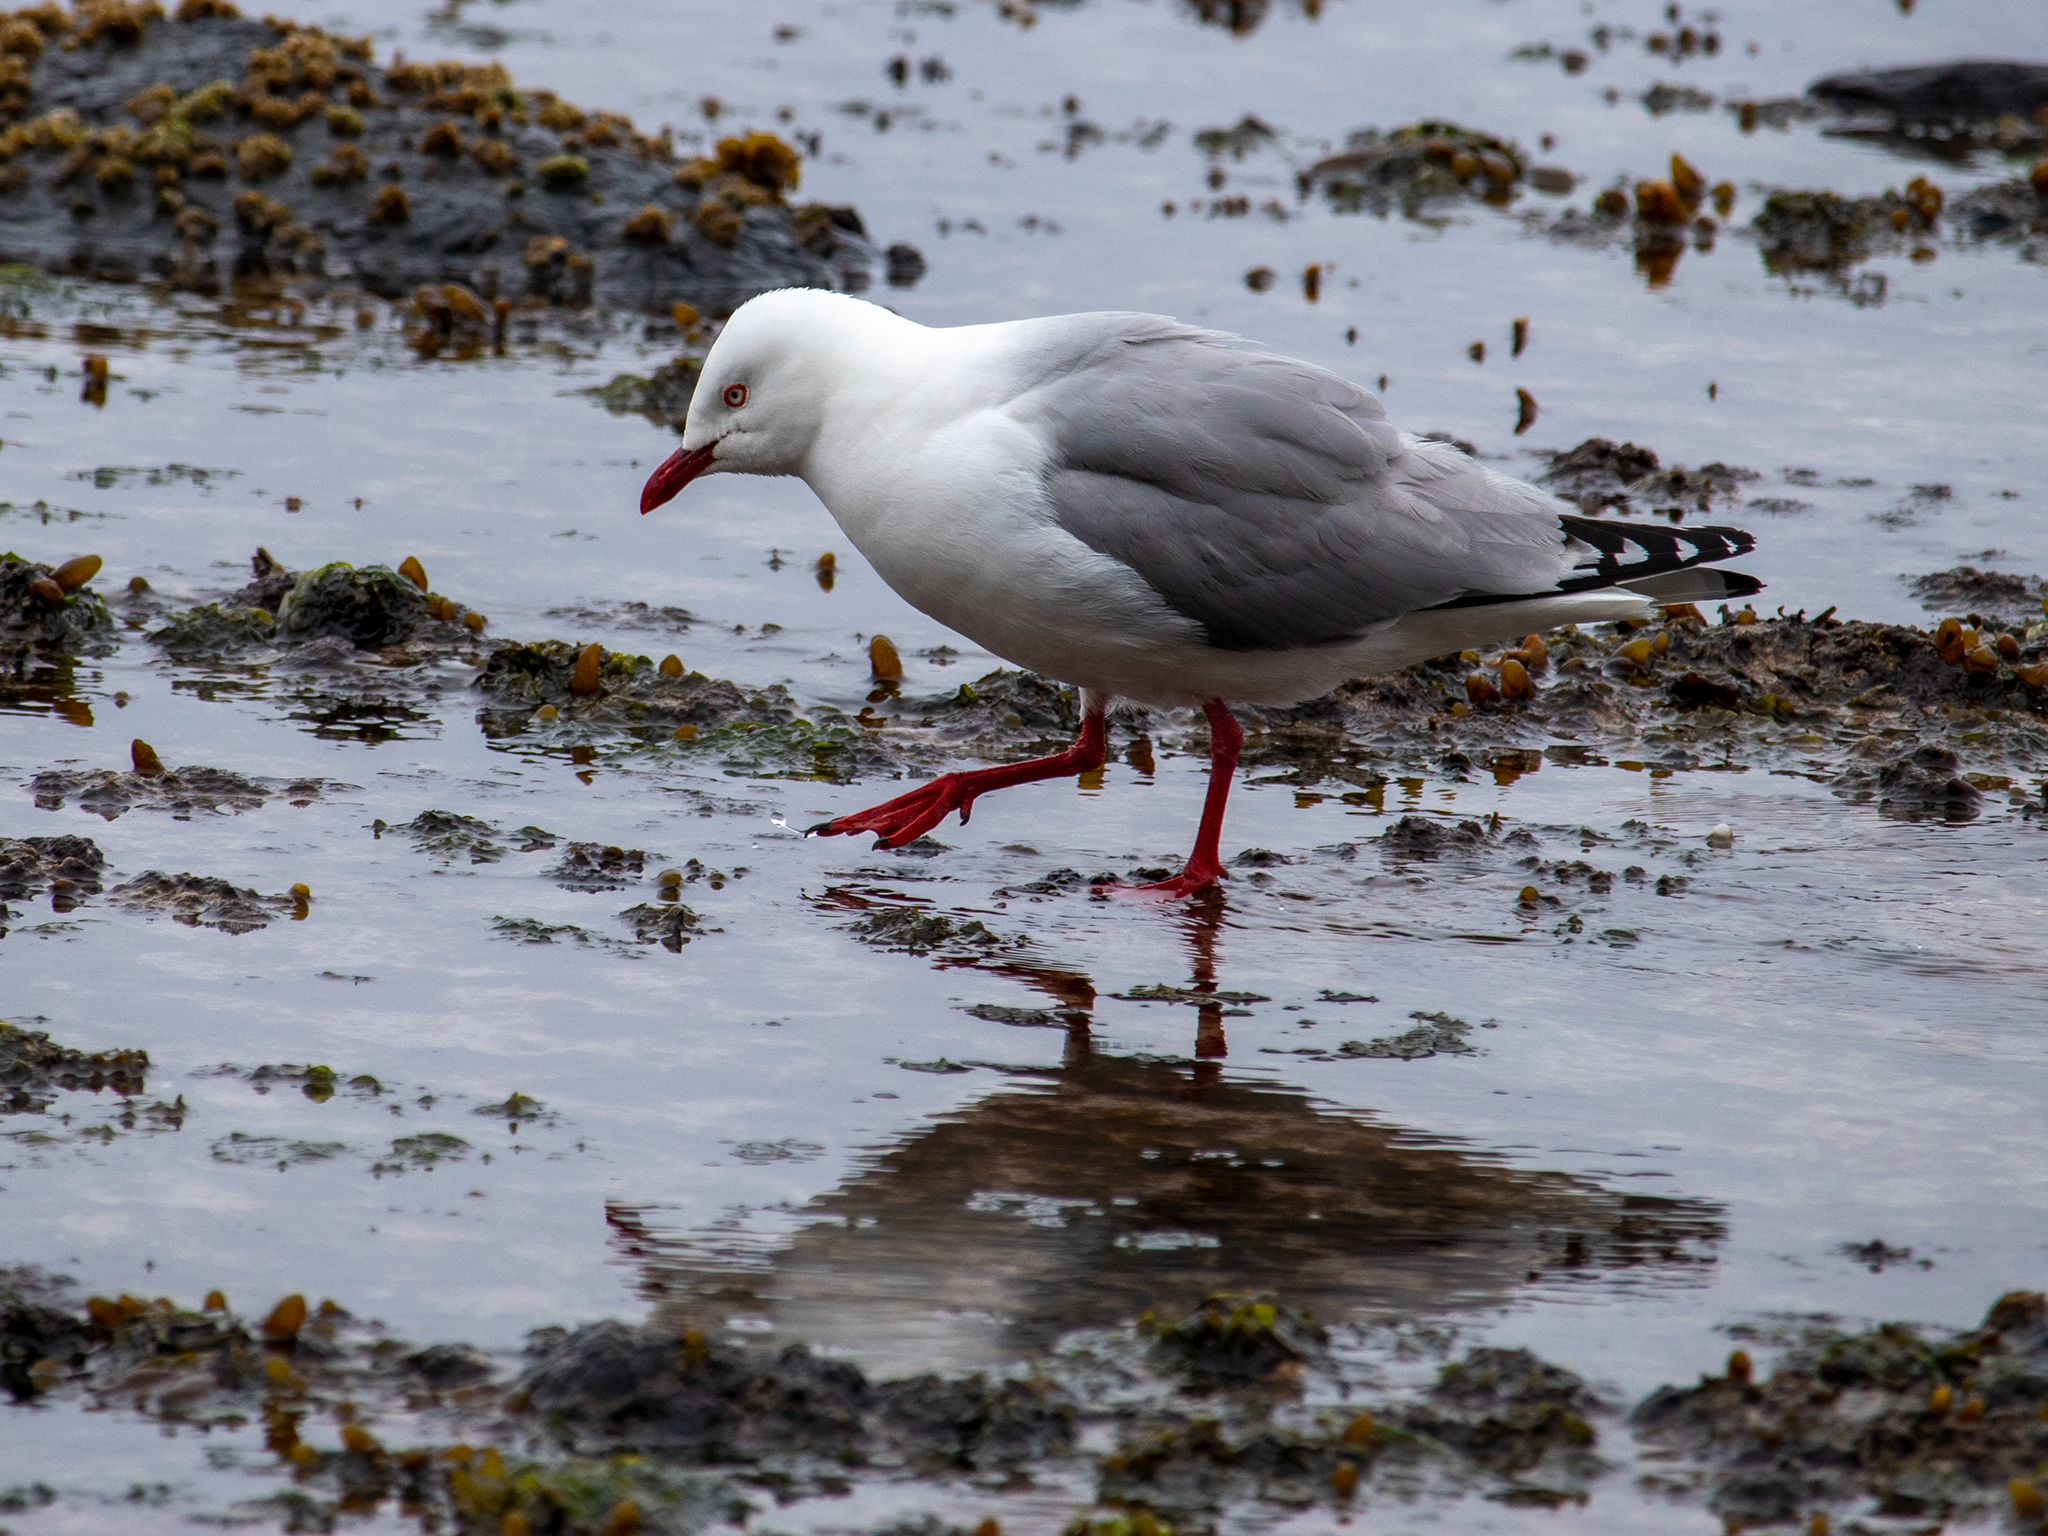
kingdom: Animalia
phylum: Chordata
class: Aves
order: Charadriiformes
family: Laridae
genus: Chroicocephalus
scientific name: Chroicocephalus novaehollandiae
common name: Silver gull
